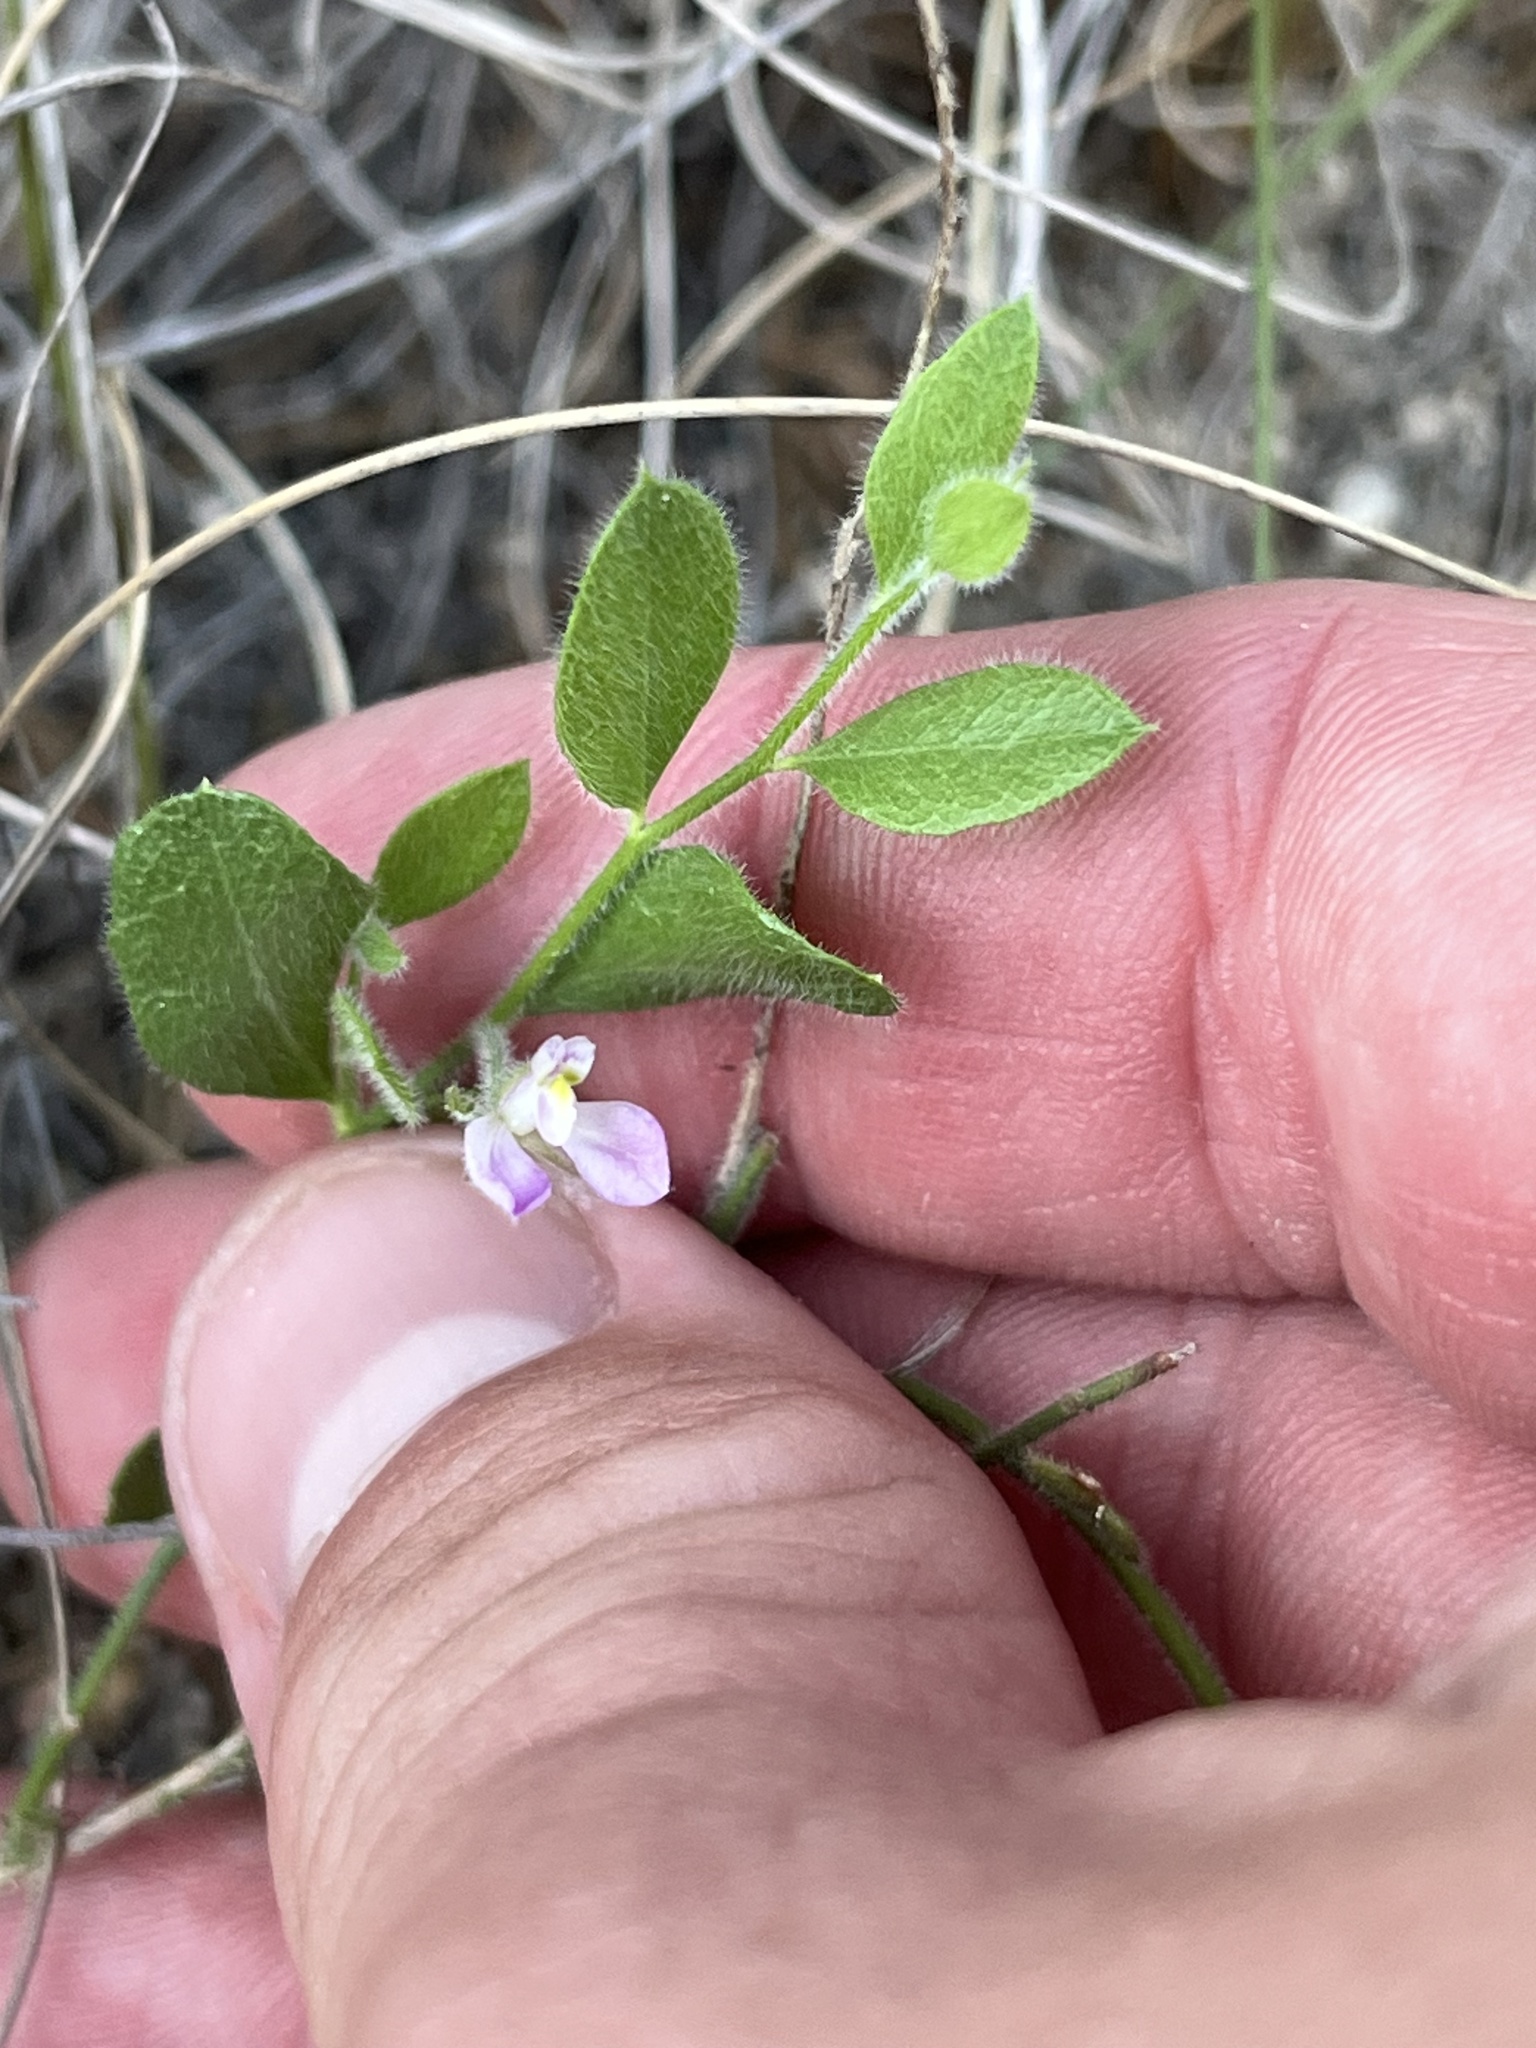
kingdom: Plantae
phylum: Tracheophyta
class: Magnoliopsida
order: Fabales
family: Polygalaceae
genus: Rhinotropis
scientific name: Rhinotropis lindheimeri
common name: Shrubby milkwort
